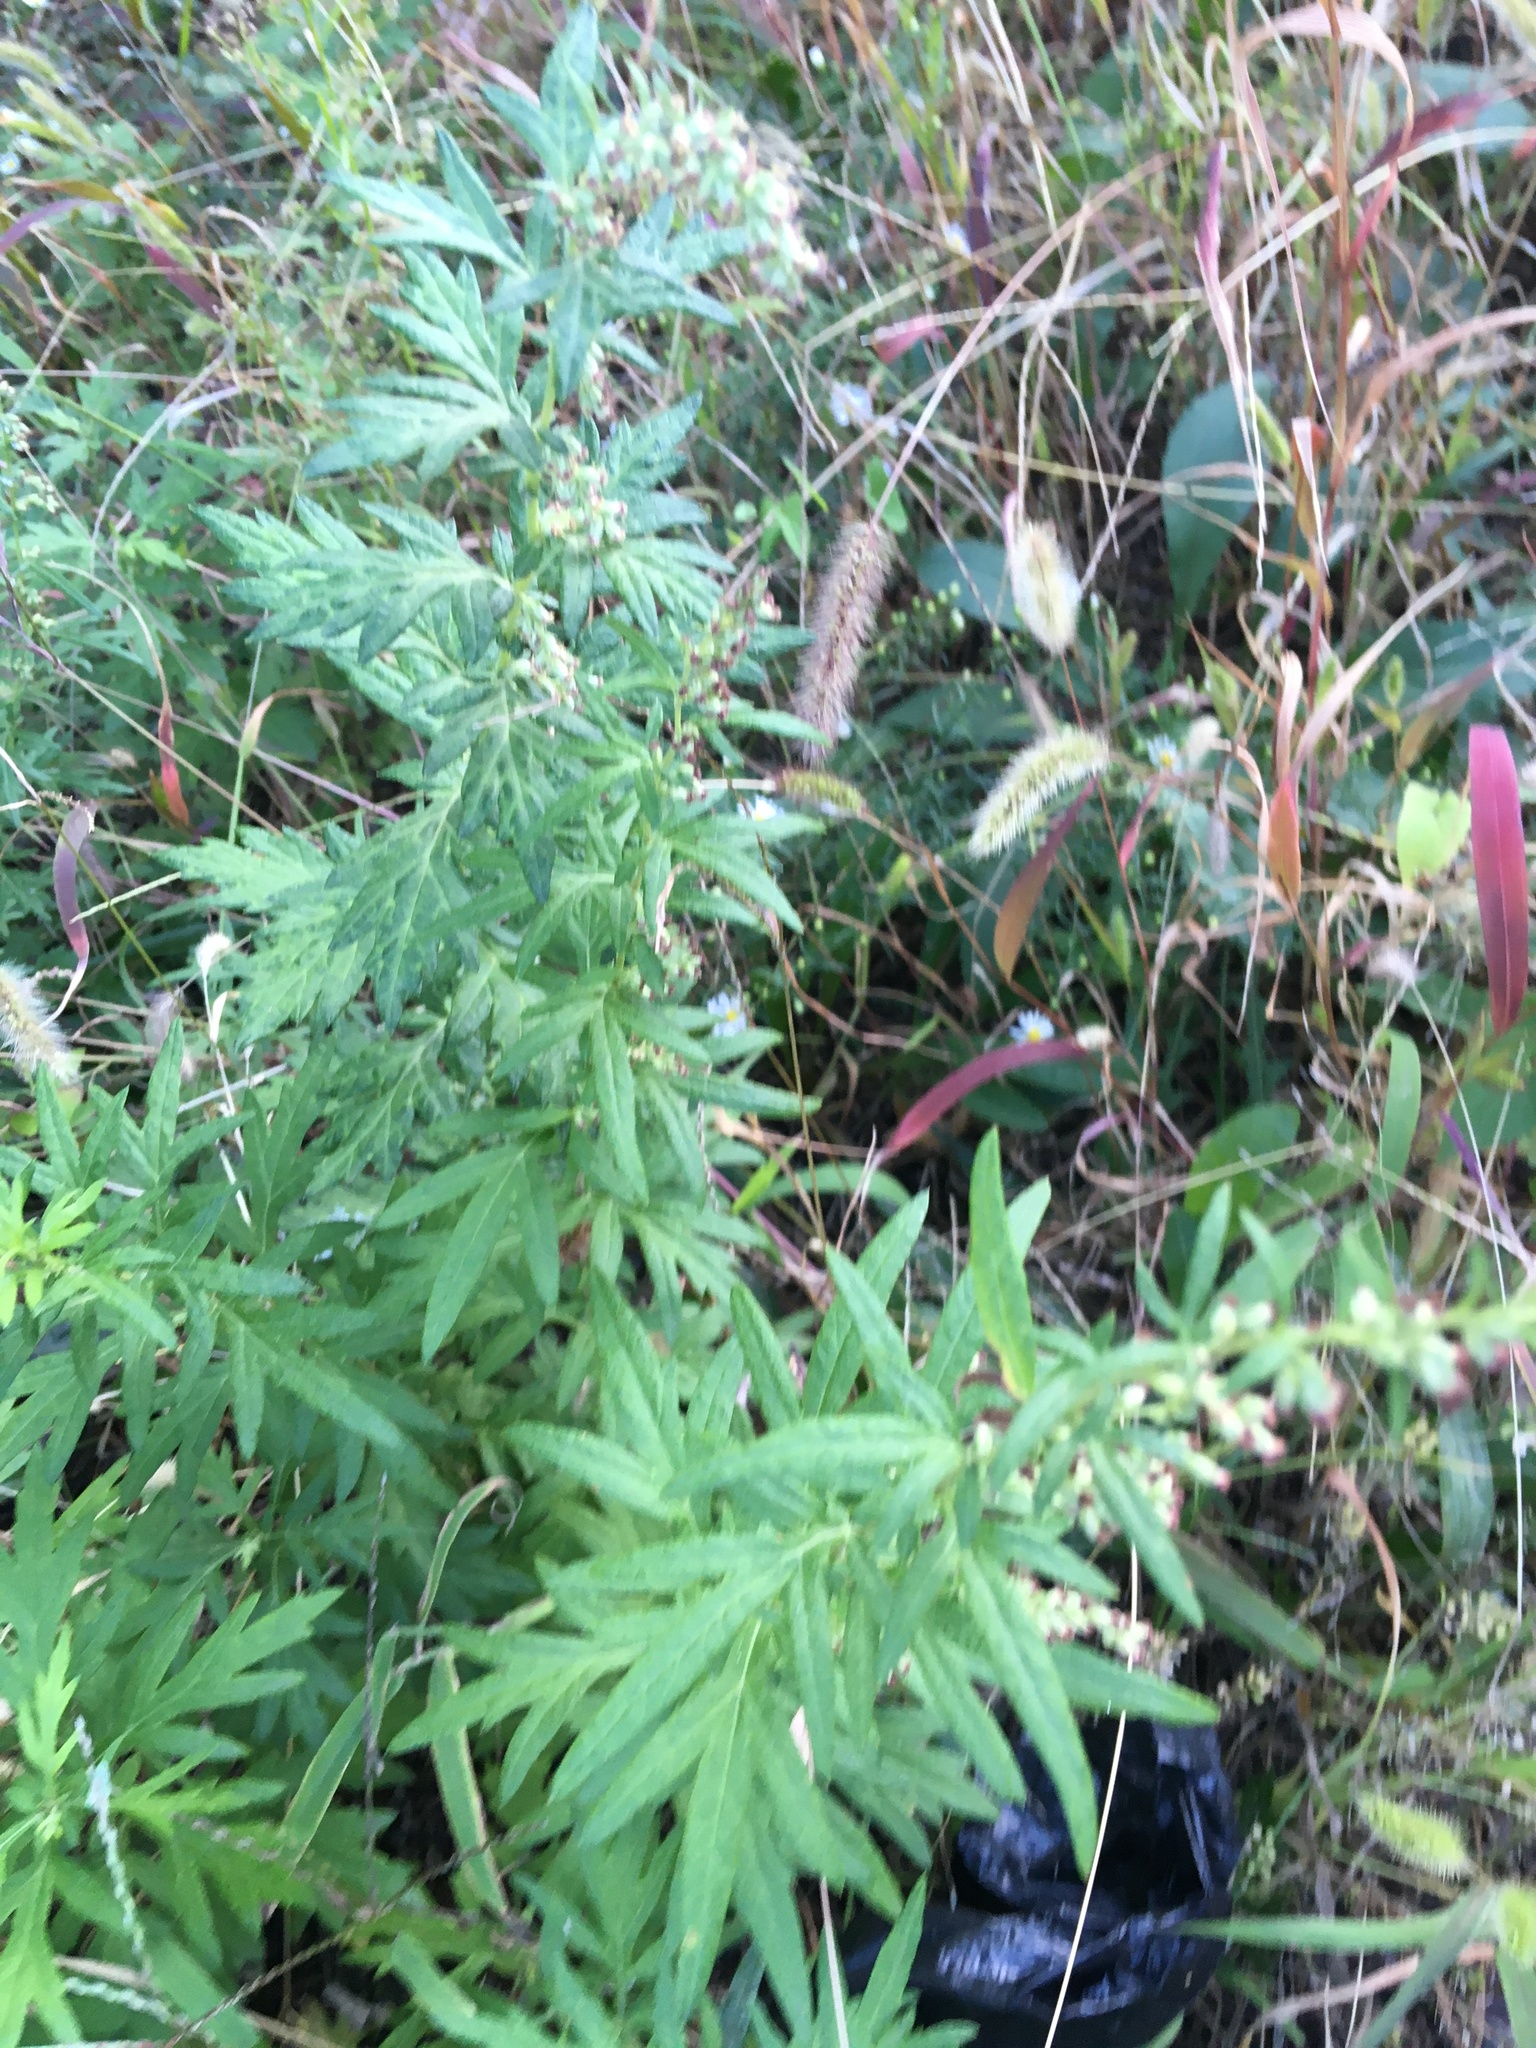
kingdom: Plantae
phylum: Tracheophyta
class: Magnoliopsida
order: Asterales
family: Asteraceae
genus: Artemisia
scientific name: Artemisia vulgaris
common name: Mugwort
